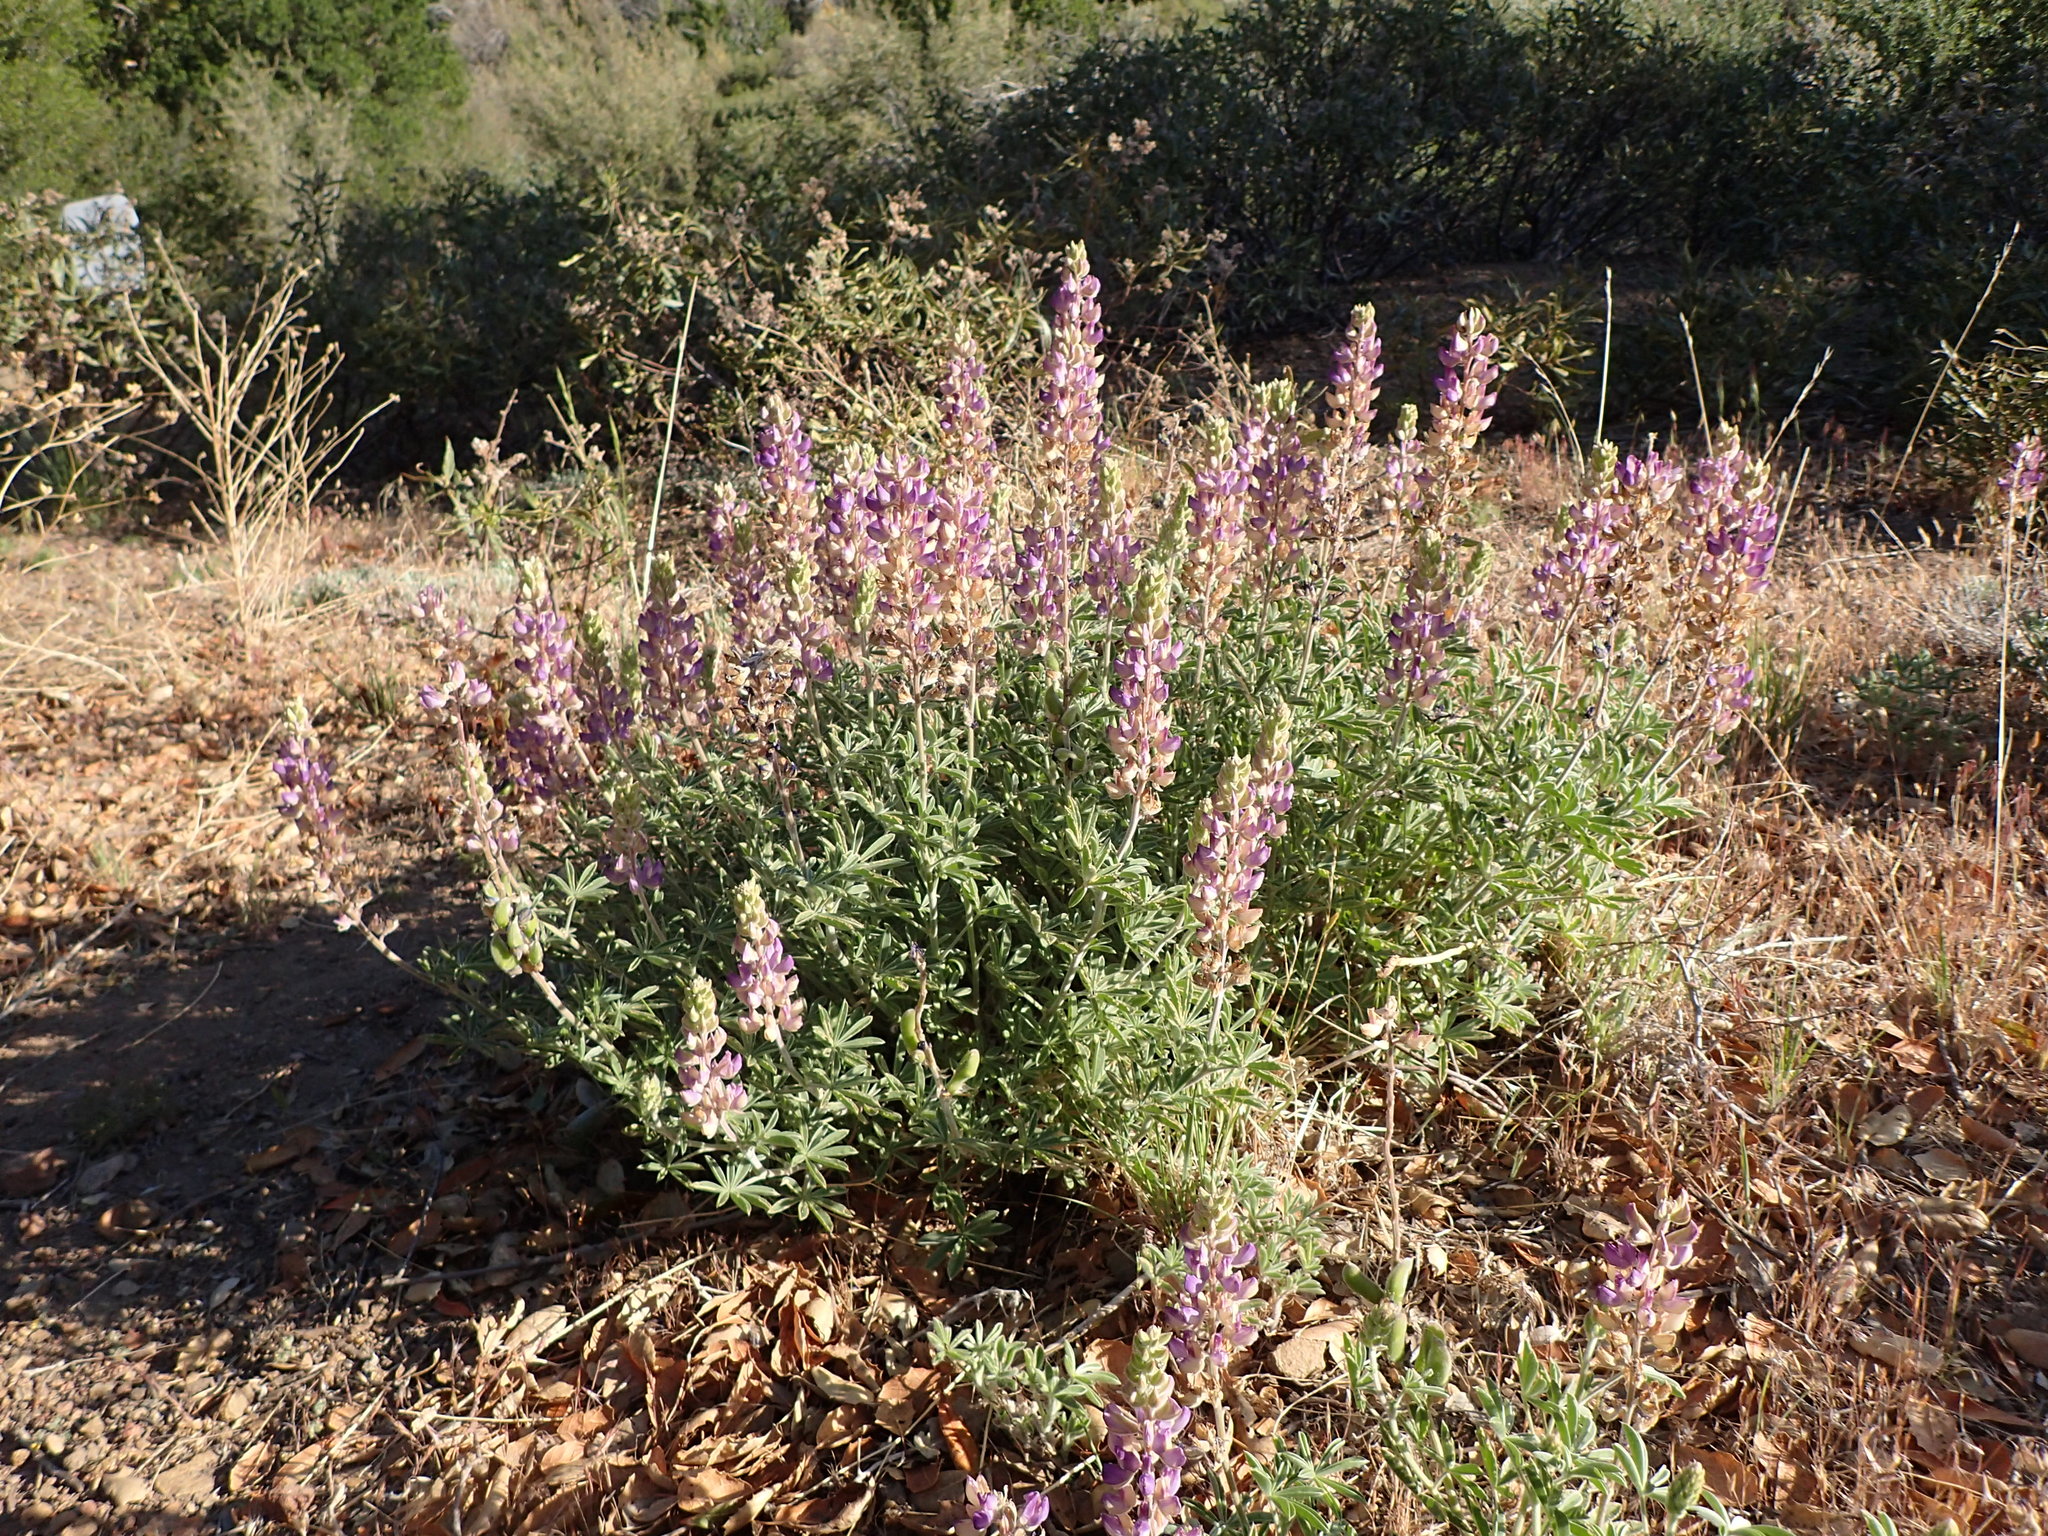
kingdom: Plantae
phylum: Tracheophyta
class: Magnoliopsida
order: Fabales
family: Fabaceae
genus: Lupinus
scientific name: Lupinus formosus
